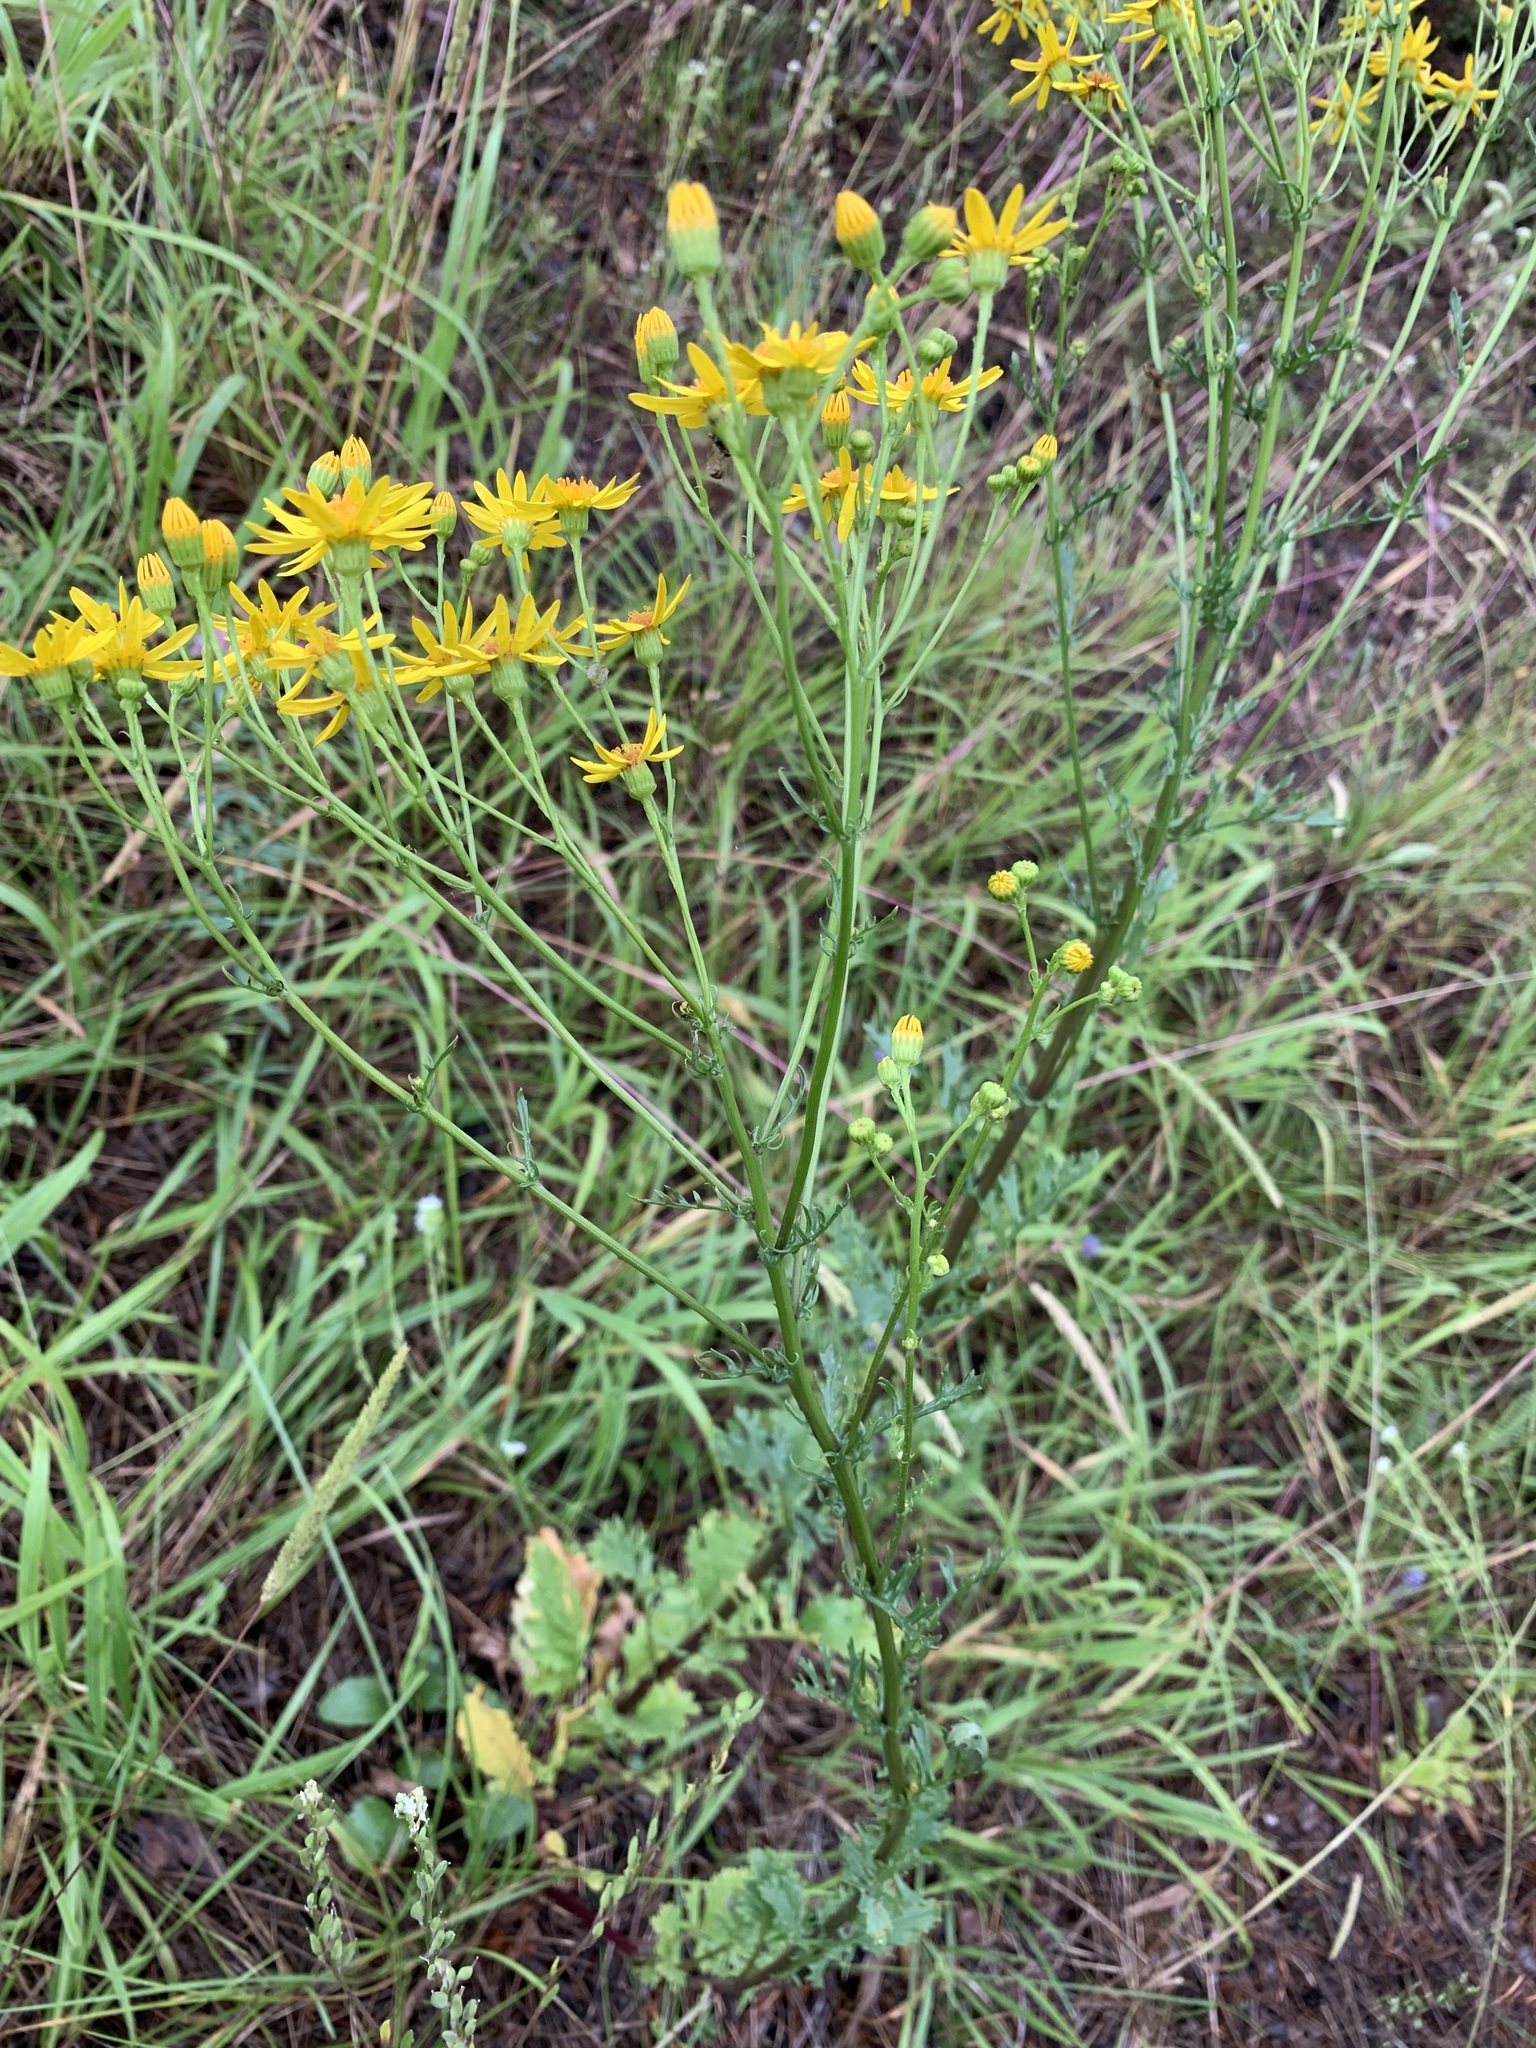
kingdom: Plantae
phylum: Tracheophyta
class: Magnoliopsida
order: Asterales
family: Asteraceae
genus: Jacobaea
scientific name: Jacobaea vulgaris
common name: Stinking willie
